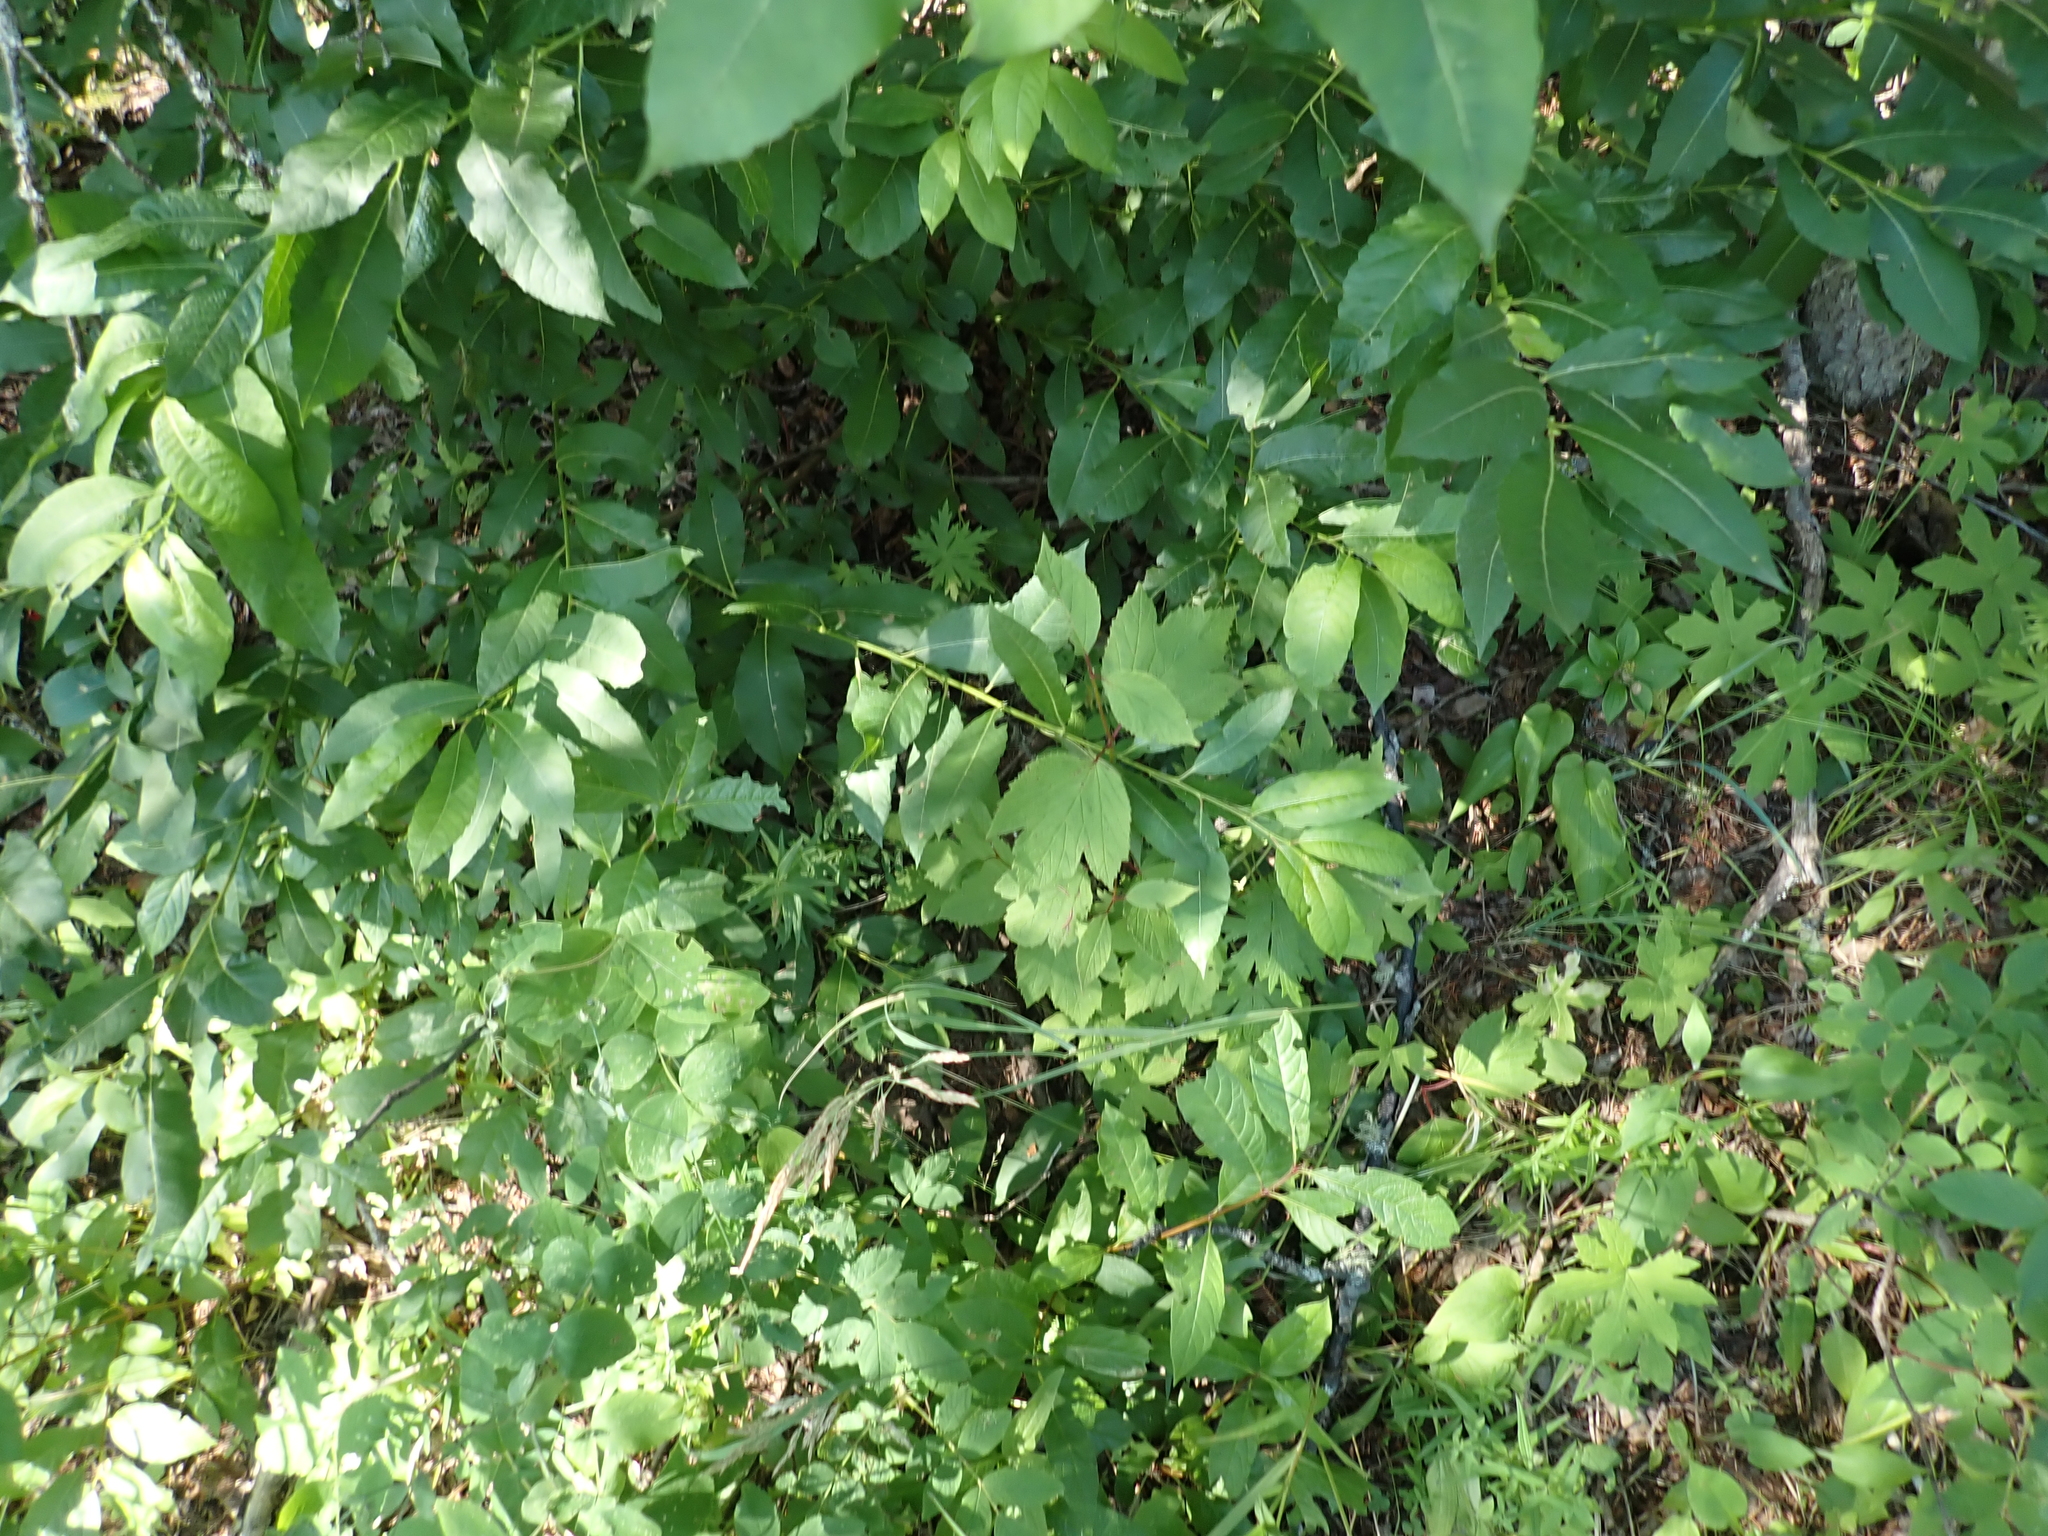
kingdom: Plantae
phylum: Tracheophyta
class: Magnoliopsida
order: Dipsacales
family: Viburnaceae
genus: Viburnum
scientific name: Viburnum edule
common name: Mooseberry
